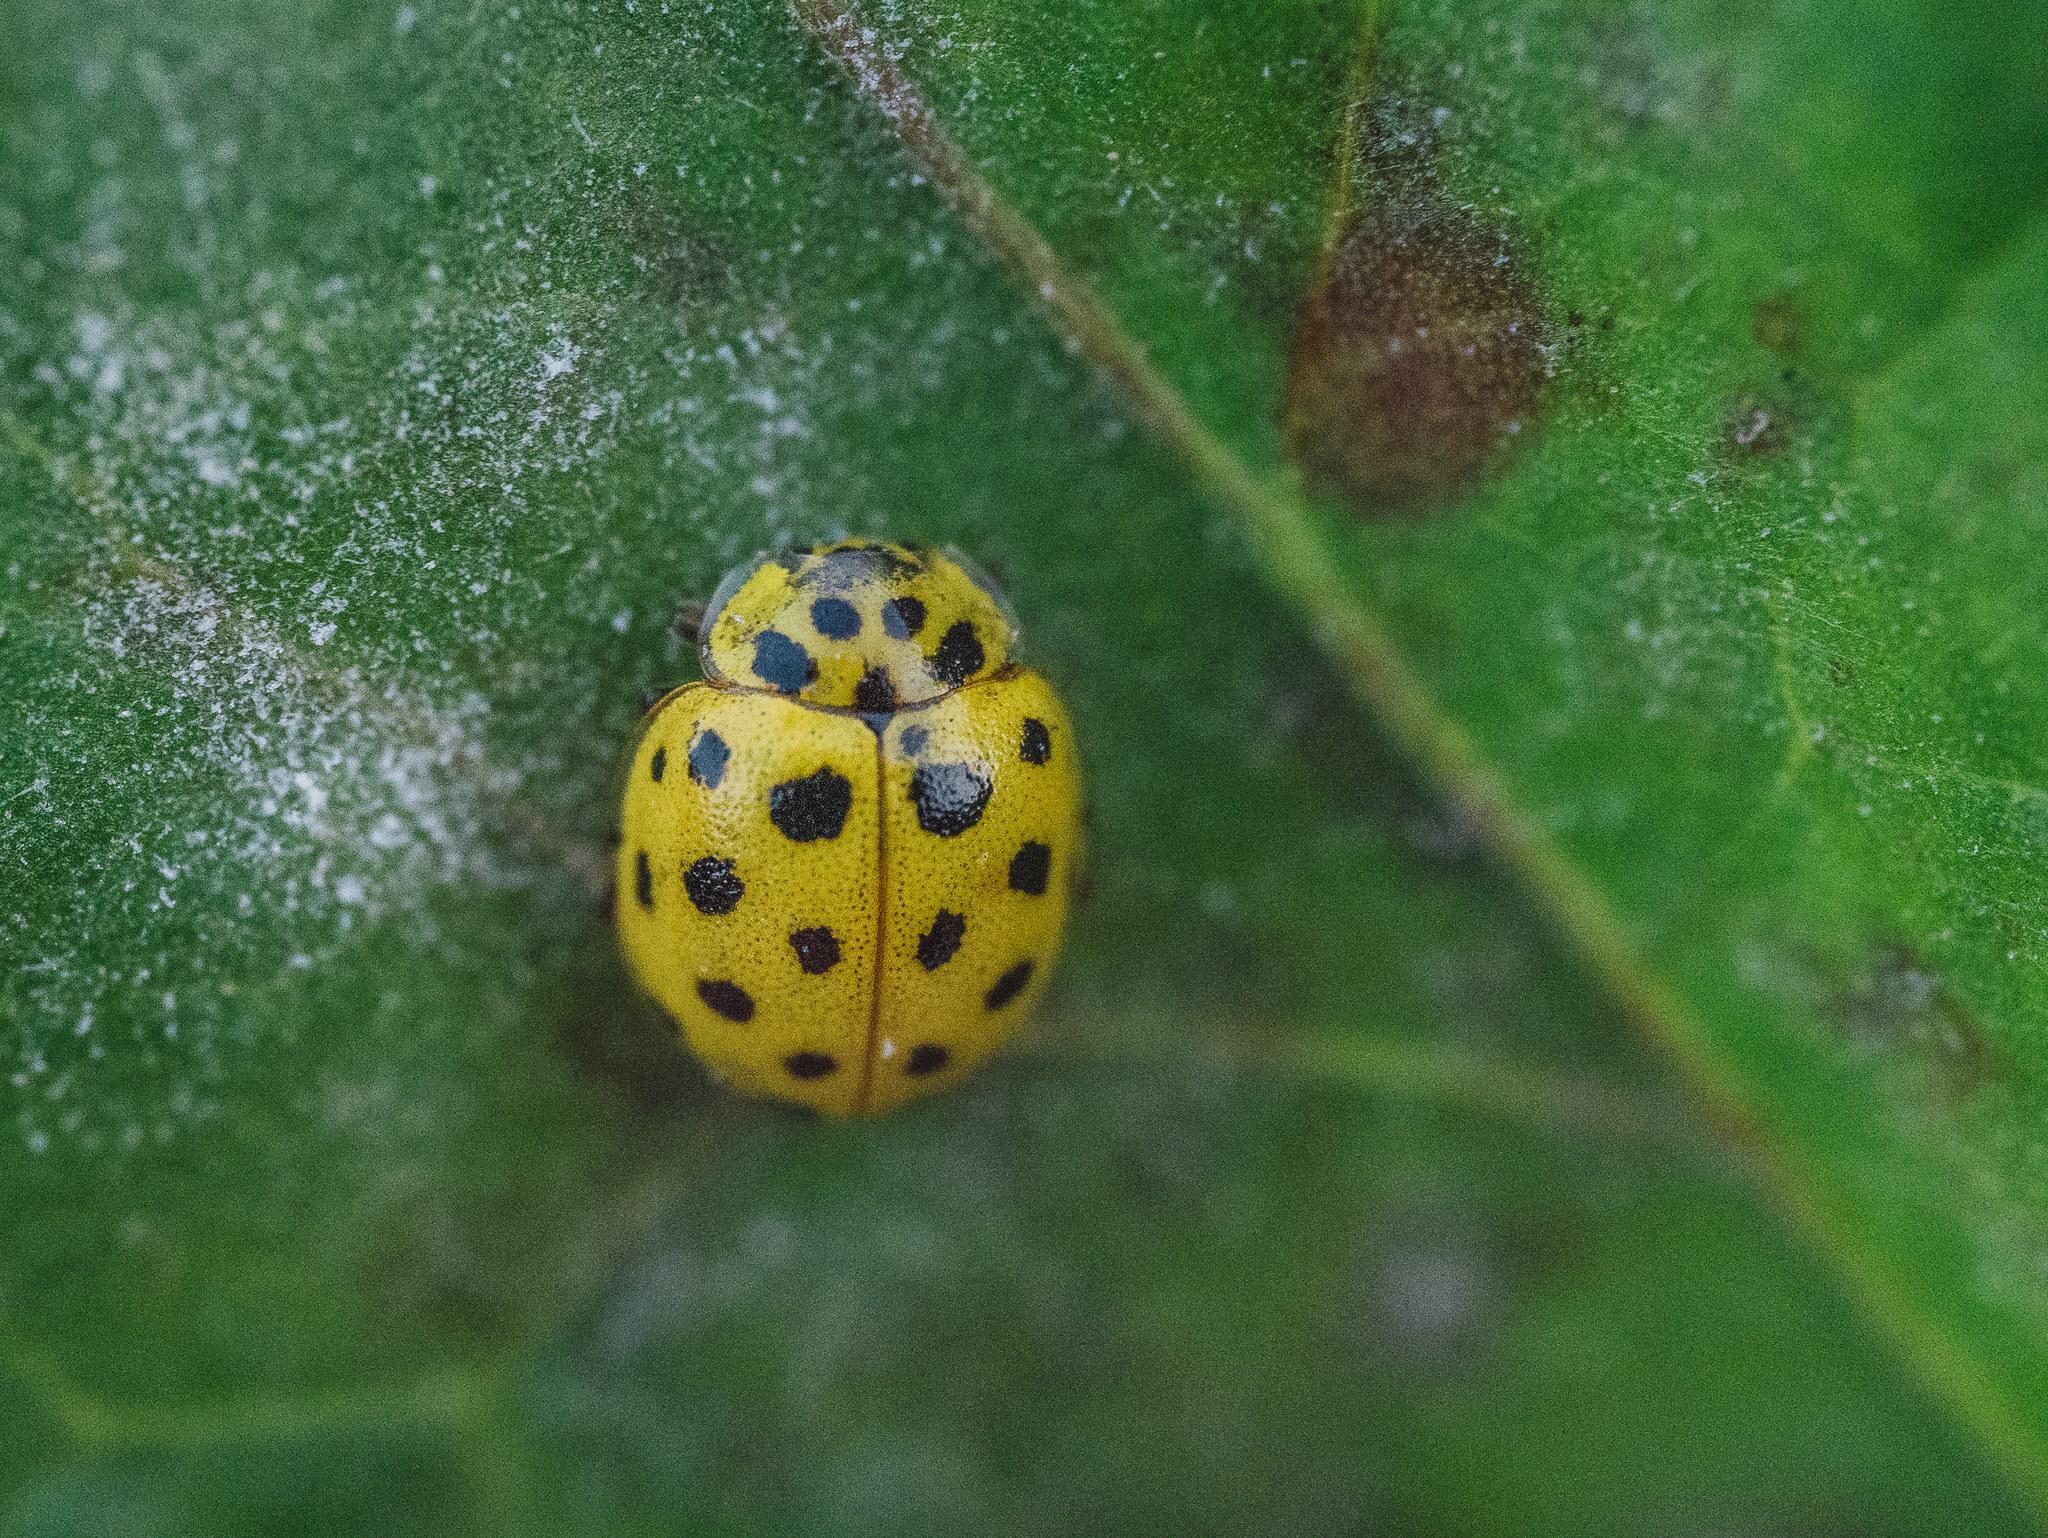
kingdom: Animalia
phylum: Arthropoda
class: Insecta
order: Coleoptera
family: Coccinellidae
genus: Psyllobora
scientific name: Psyllobora vigintiduopunctata
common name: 22-spot ladybird
